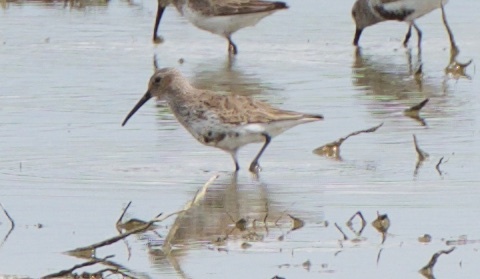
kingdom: Animalia
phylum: Chordata
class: Aves
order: Charadriiformes
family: Scolopacidae
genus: Calidris
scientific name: Calidris alpina
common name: Dunlin
